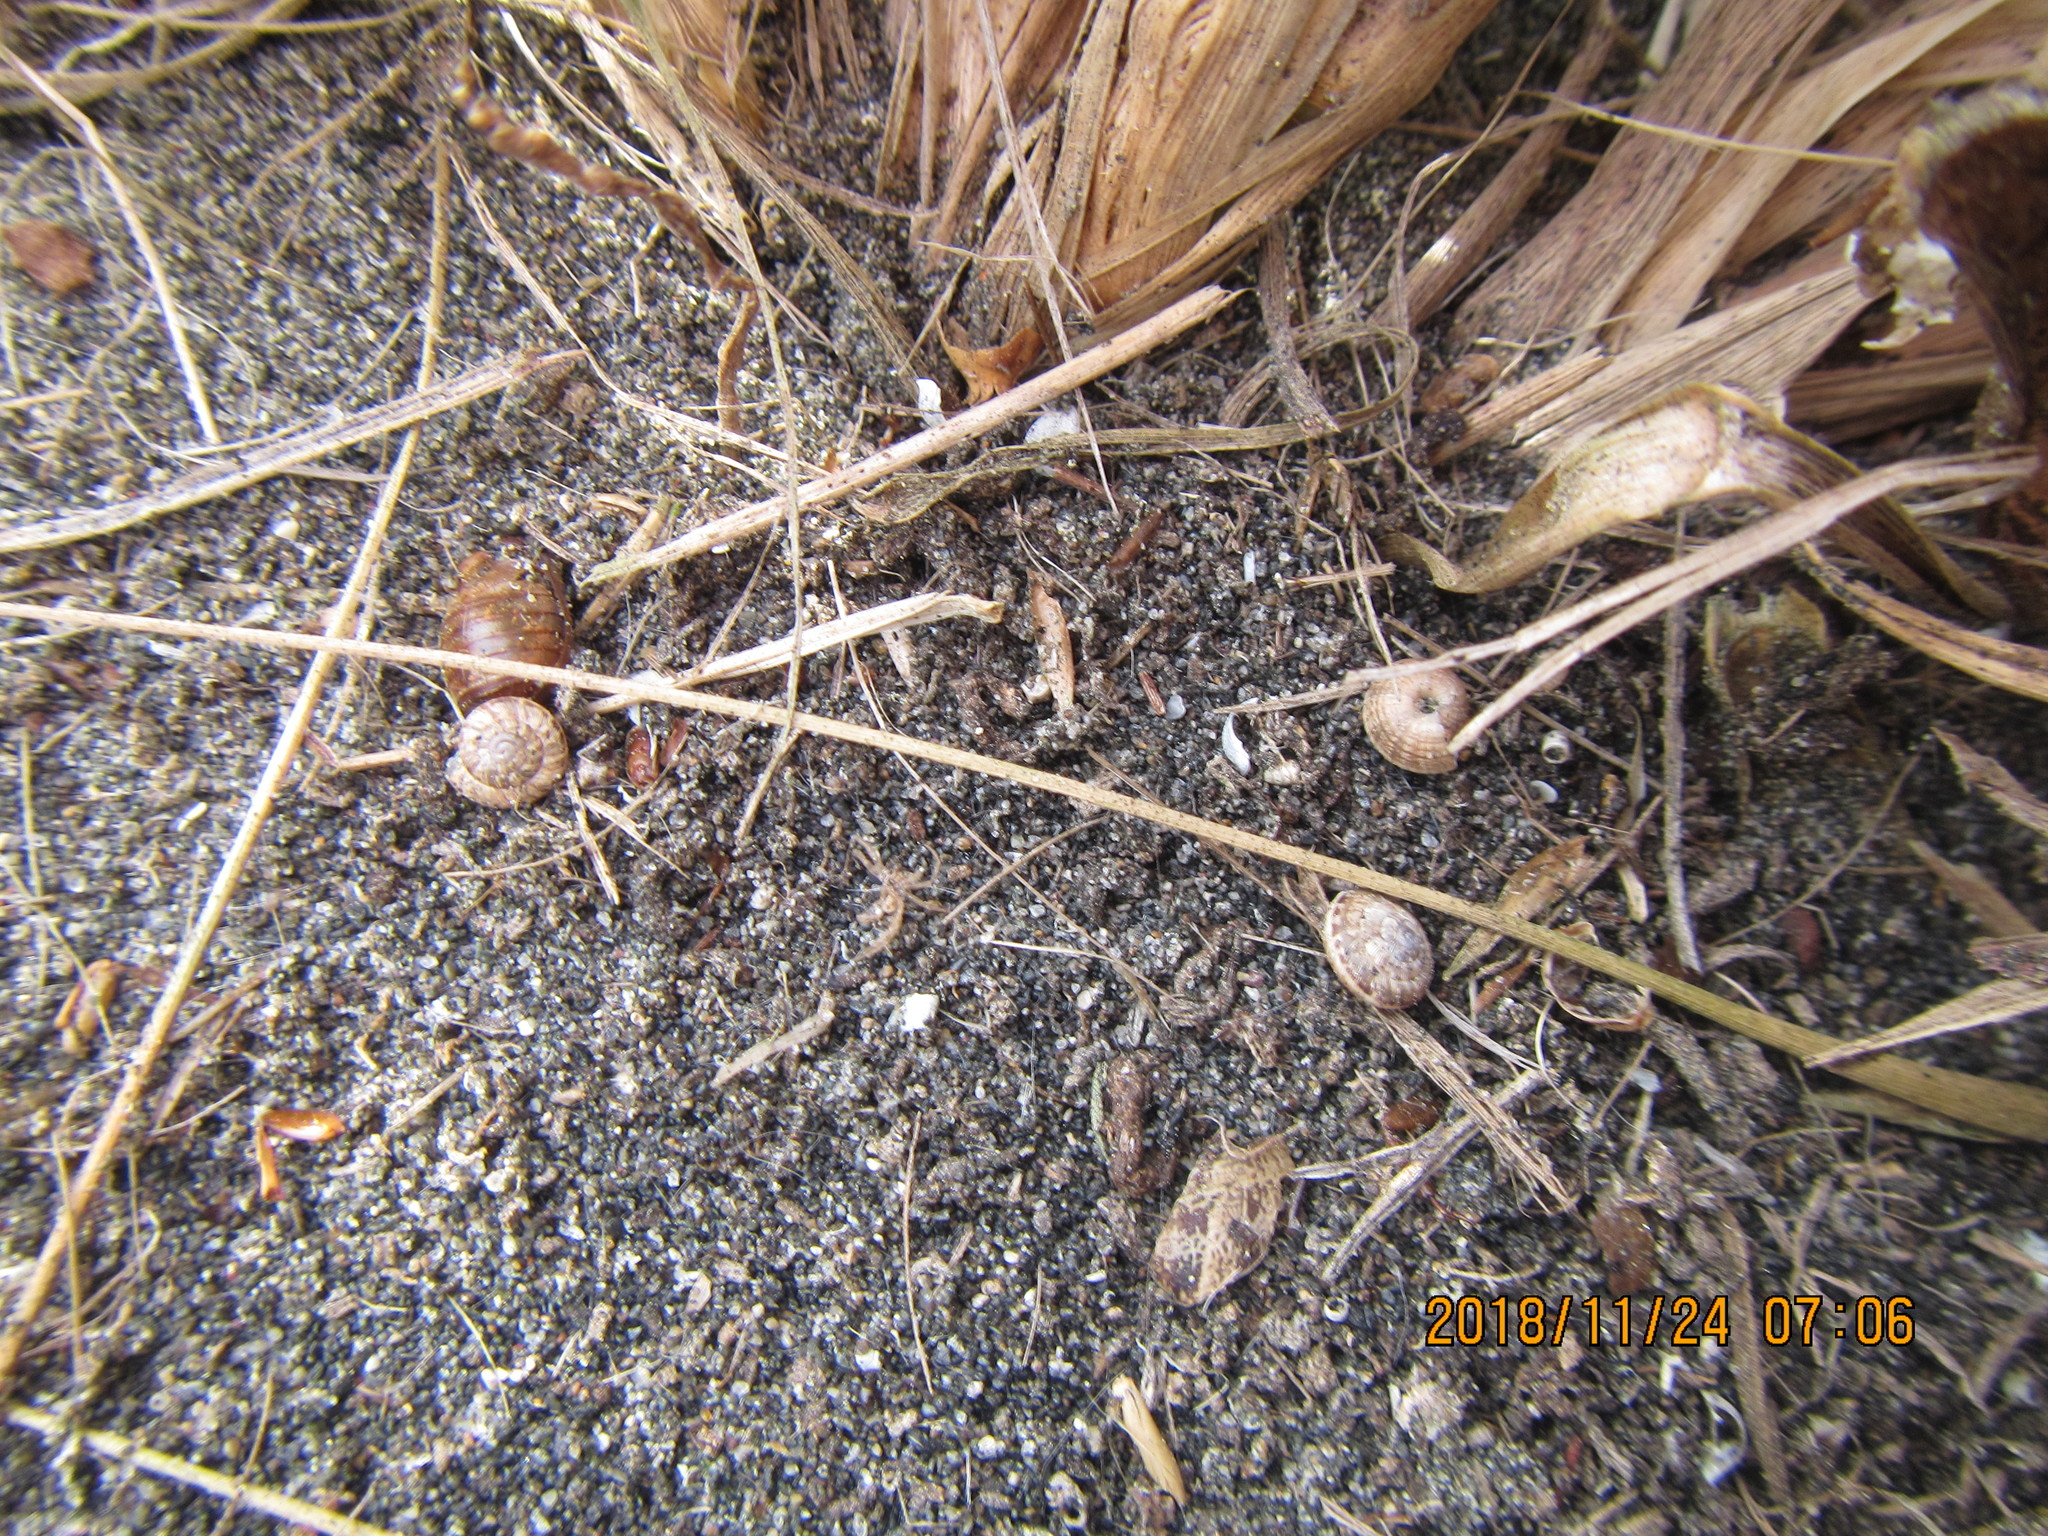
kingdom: Animalia
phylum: Mollusca
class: Gastropoda
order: Stylommatophora
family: Geomitridae
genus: Xeroplexa
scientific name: Xeroplexa intersecta
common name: Wrinkled snail
